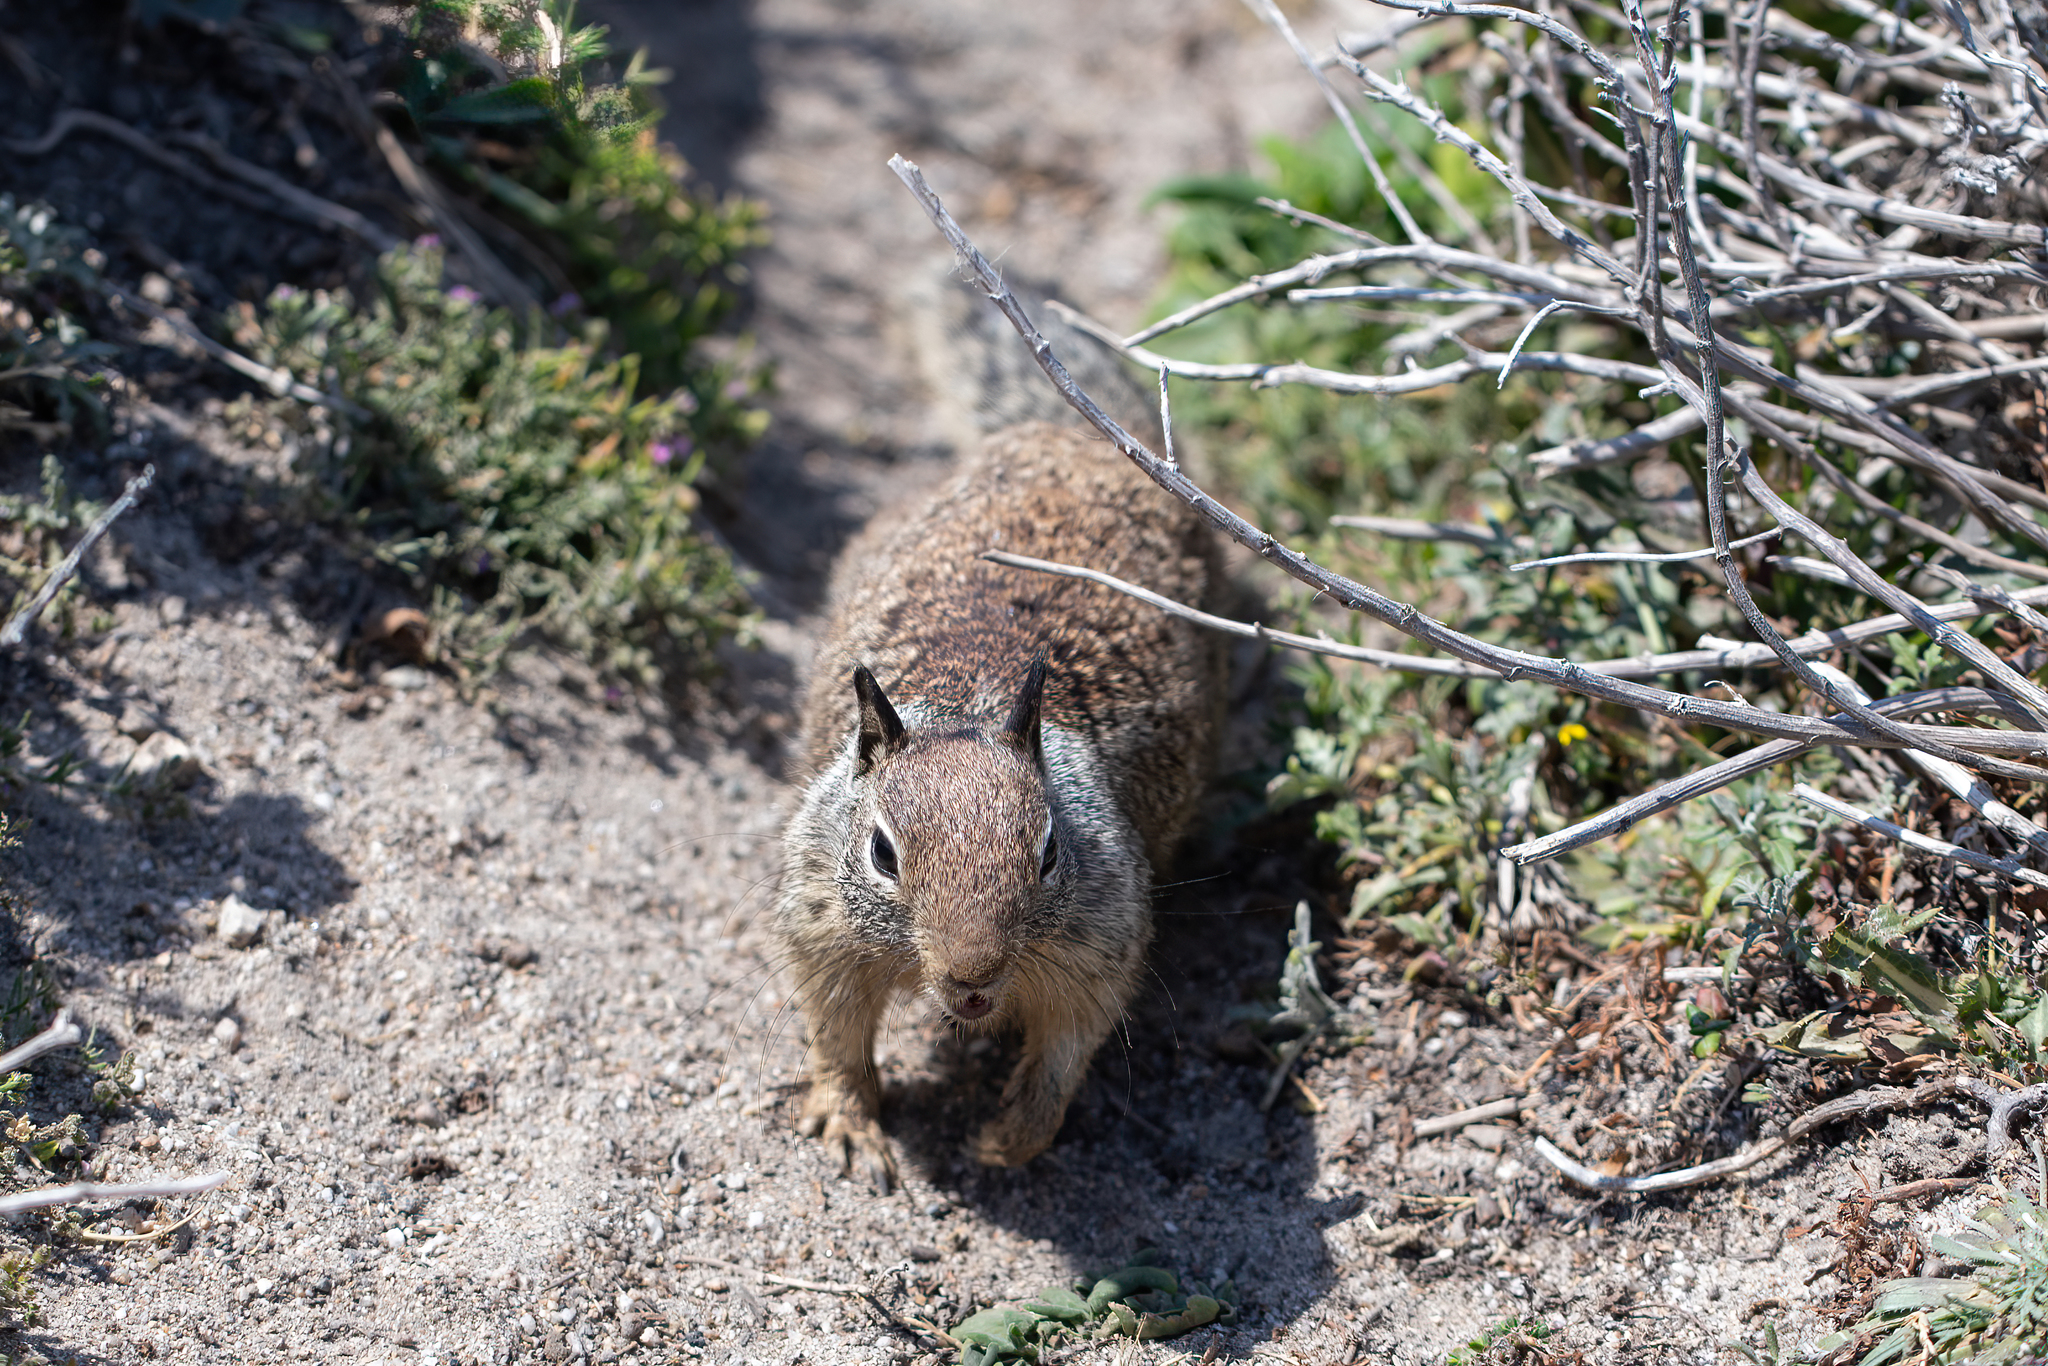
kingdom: Animalia
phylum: Chordata
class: Mammalia
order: Rodentia
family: Sciuridae
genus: Otospermophilus
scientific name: Otospermophilus beecheyi
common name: California ground squirrel
